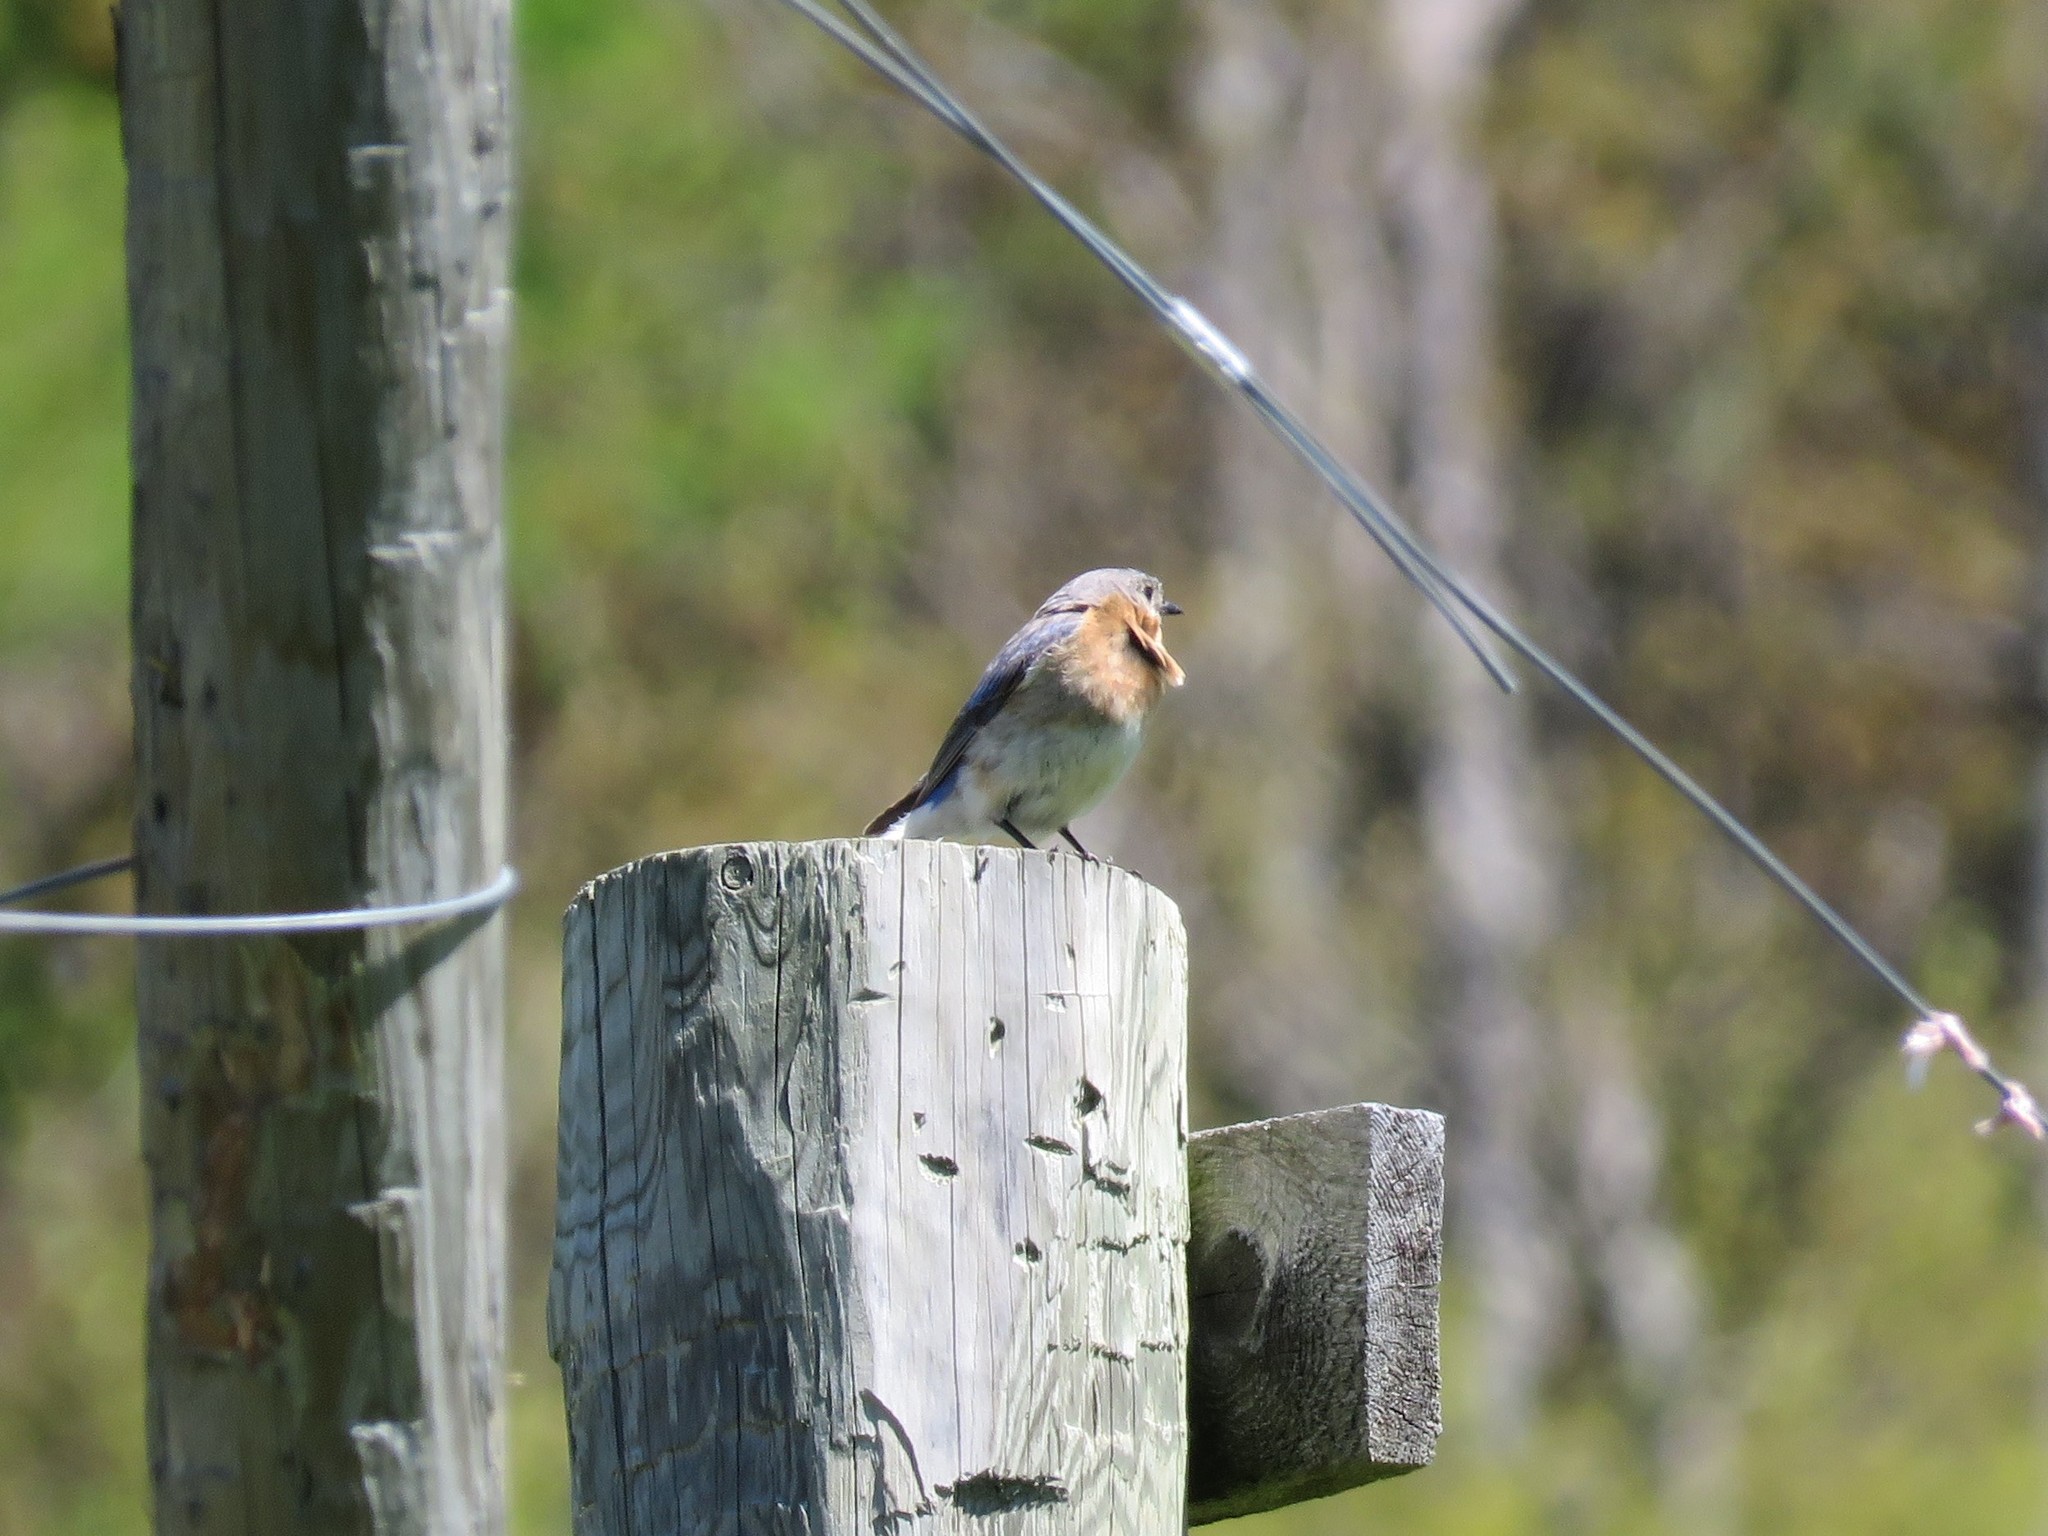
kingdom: Animalia
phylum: Chordata
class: Aves
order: Passeriformes
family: Turdidae
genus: Sialia
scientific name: Sialia sialis
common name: Eastern bluebird
